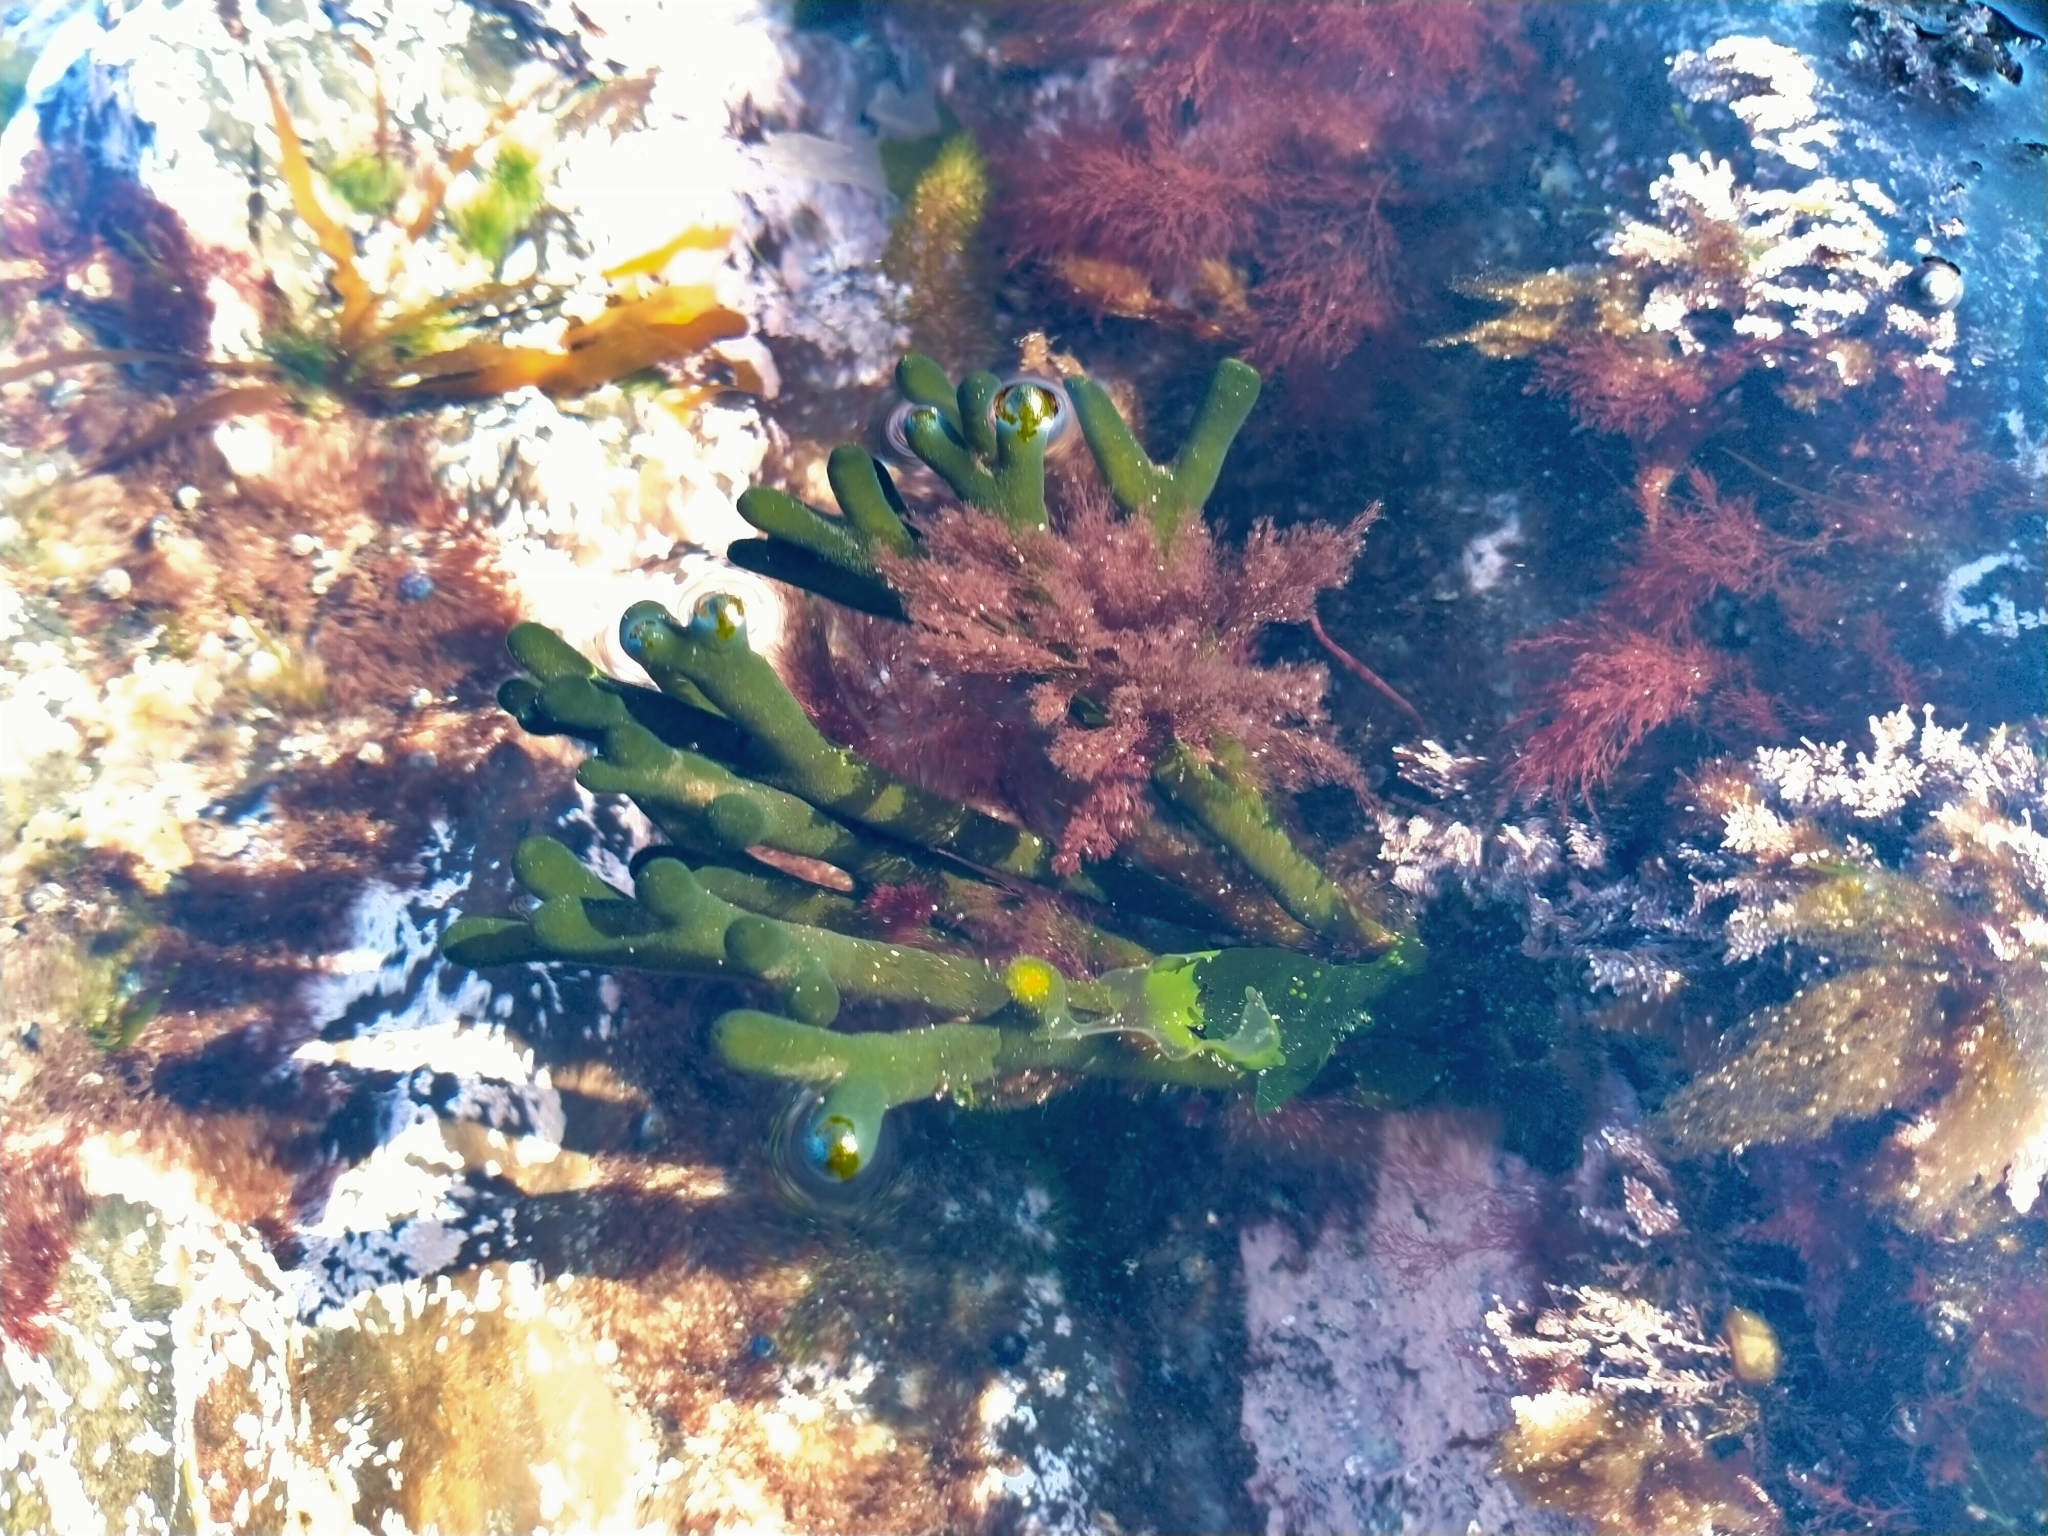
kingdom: Plantae
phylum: Chlorophyta
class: Ulvophyceae
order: Bryopsidales
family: Codiaceae
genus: Codium
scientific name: Codium fragile
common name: Dead man's fingers
